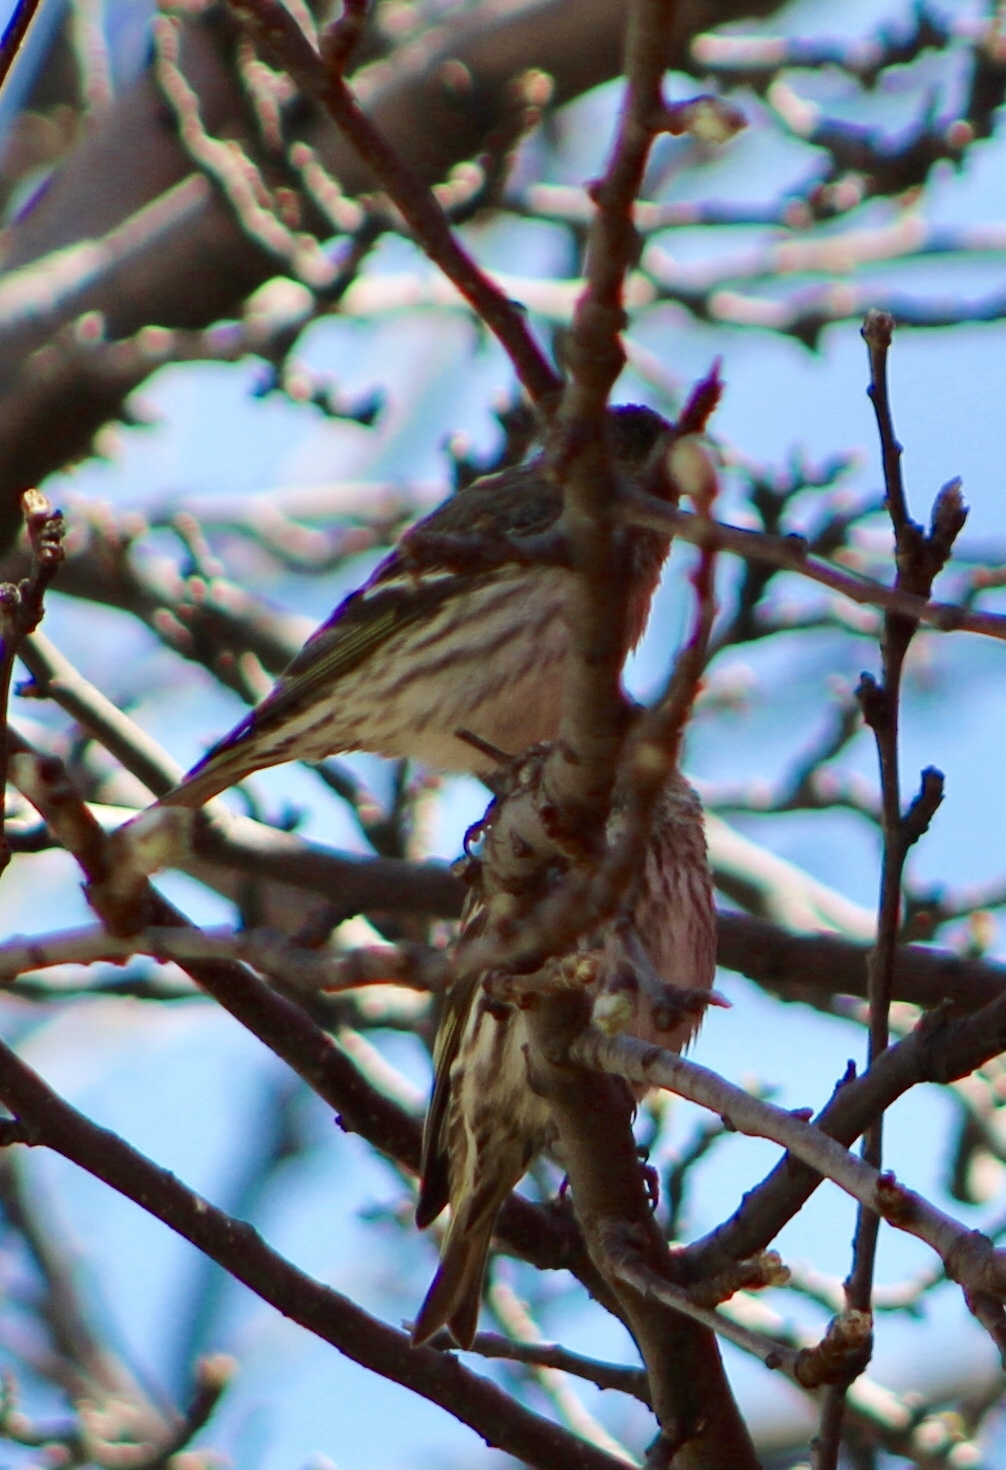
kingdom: Animalia
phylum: Chordata
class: Aves
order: Passeriformes
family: Fringillidae
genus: Spinus
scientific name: Spinus pinus
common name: Pine siskin
